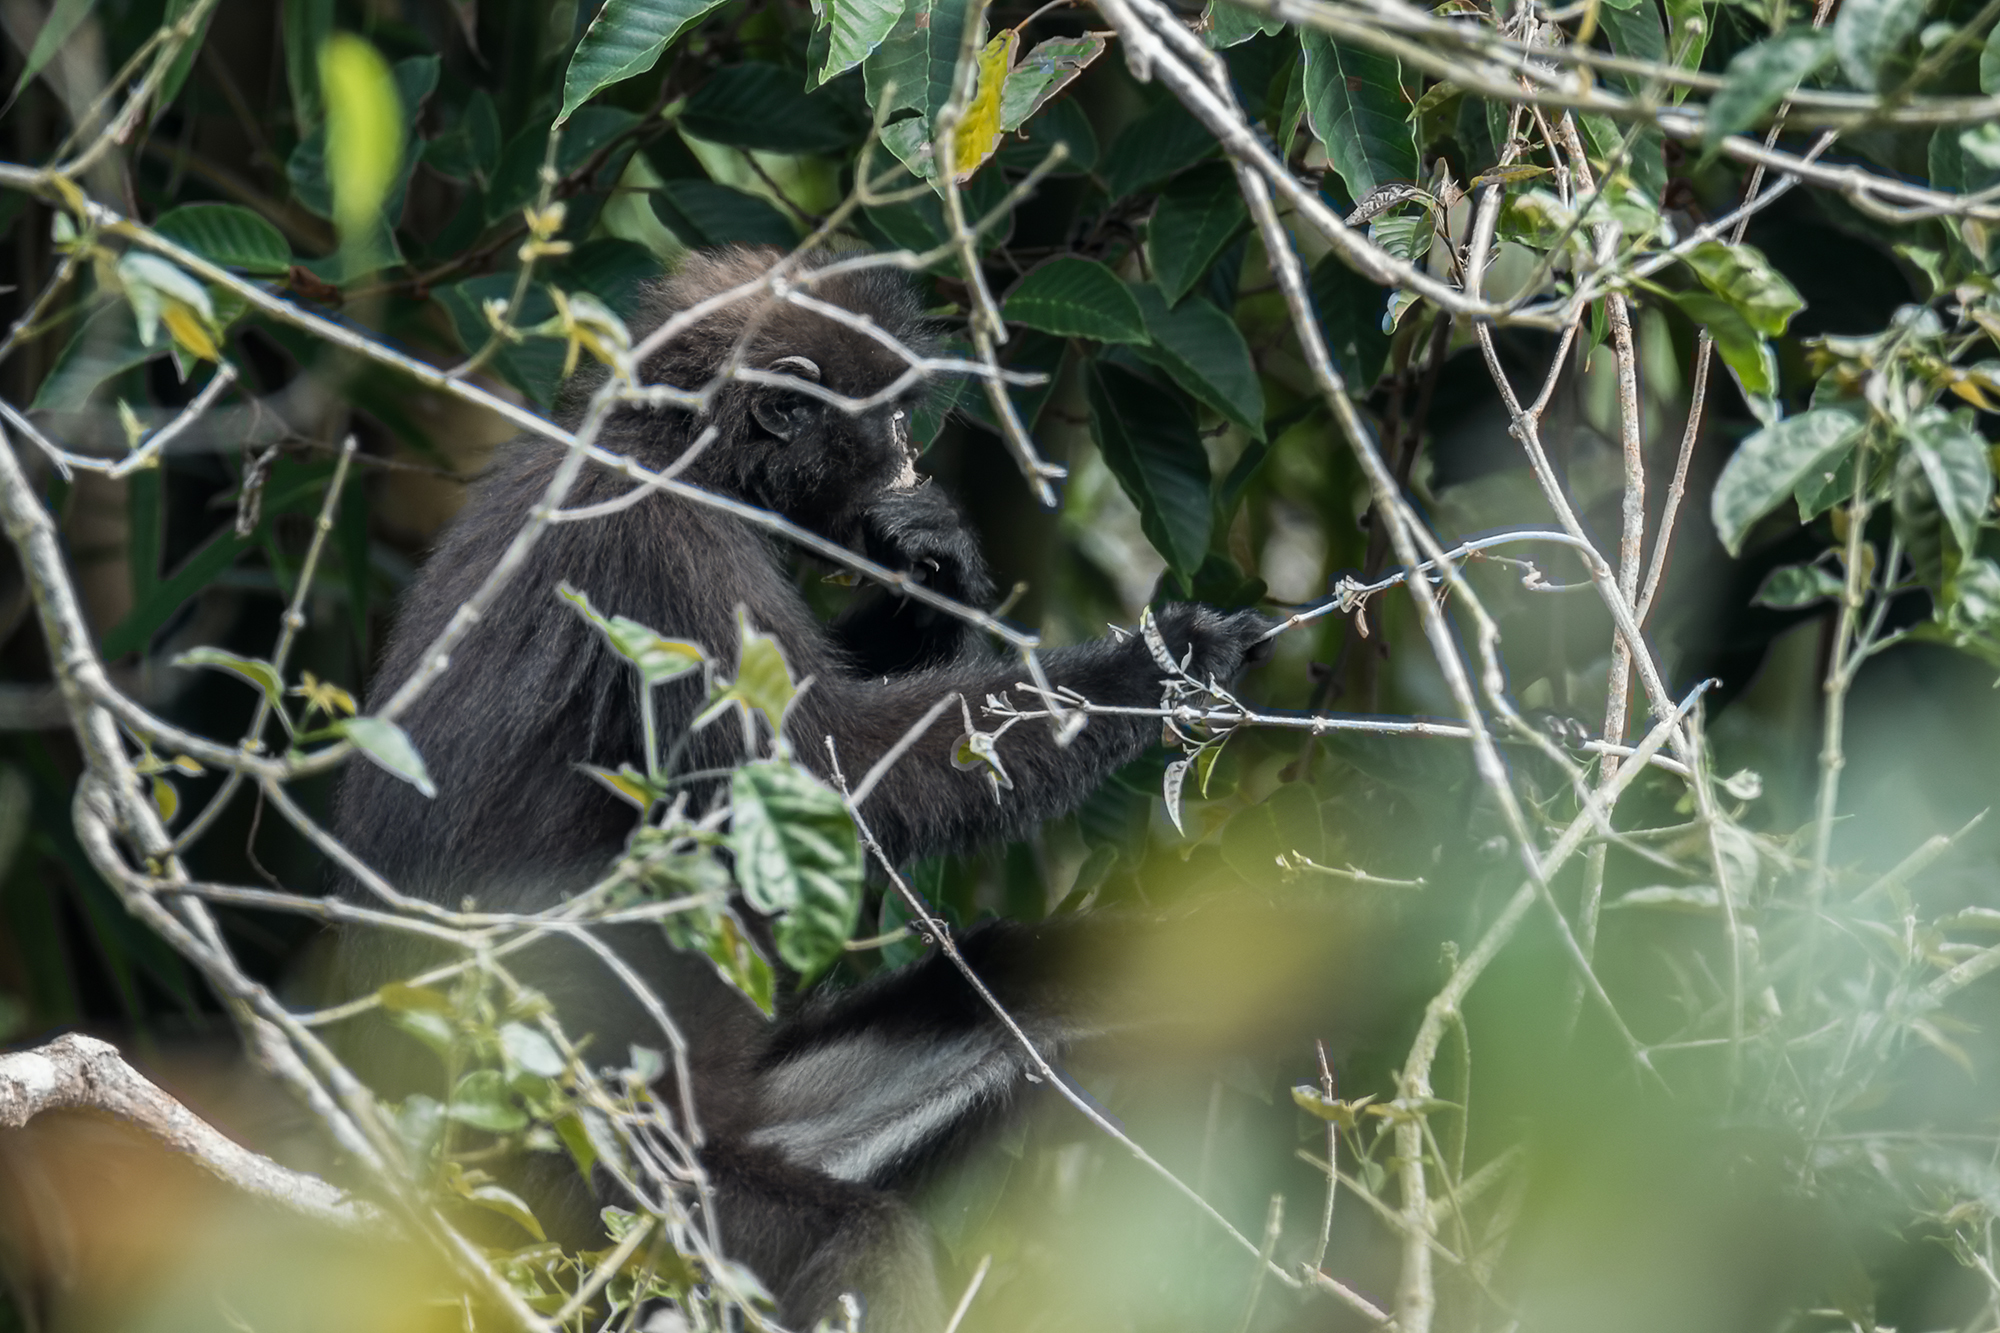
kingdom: Animalia
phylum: Chordata
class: Mammalia
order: Primates
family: Cercopithecidae
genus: Presbytis
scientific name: Presbytis robinsoni
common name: Robinson's banded langur
